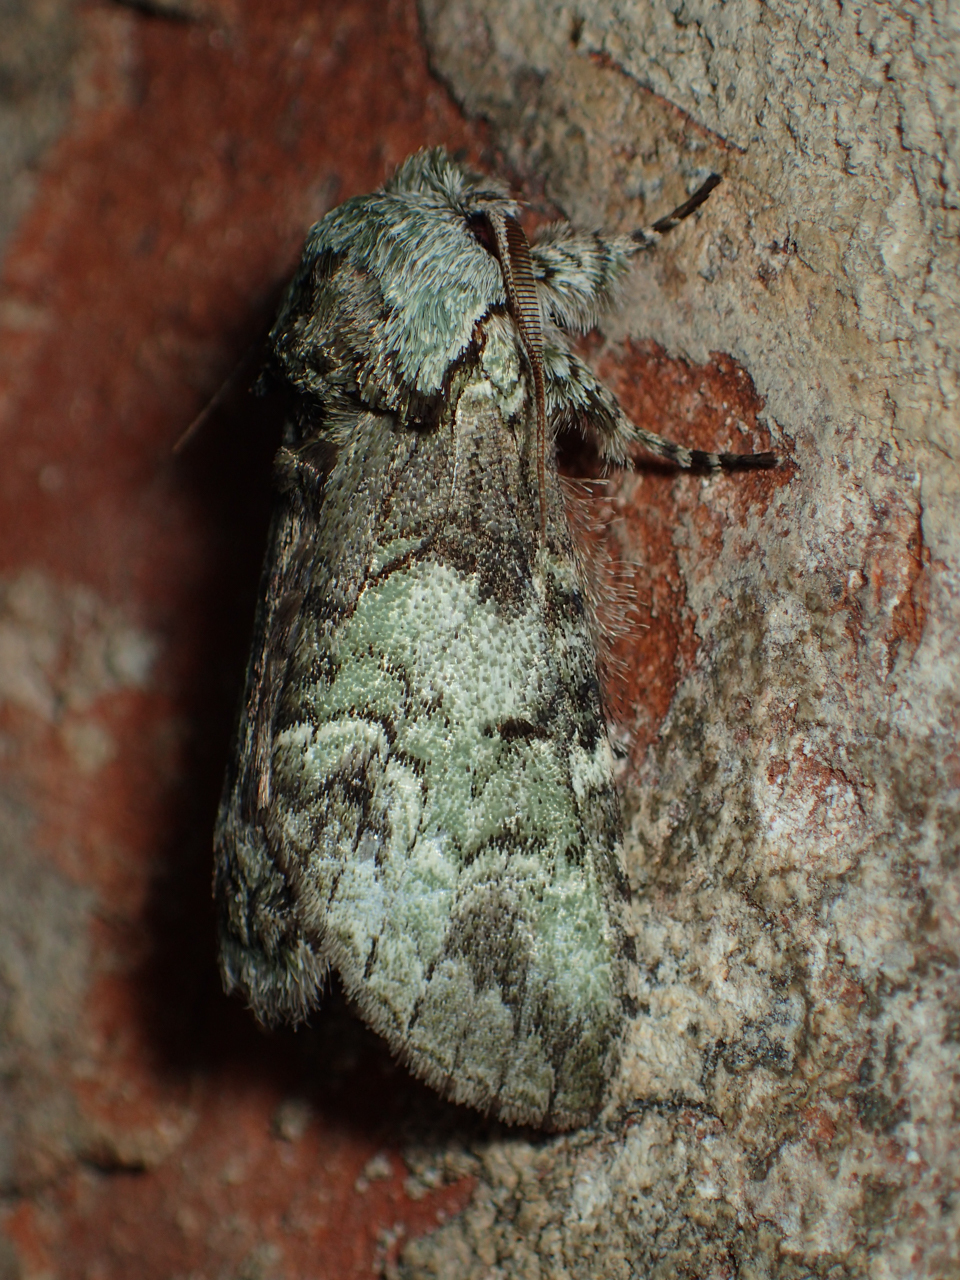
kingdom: Animalia
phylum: Arthropoda
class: Insecta
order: Lepidoptera
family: Notodontidae
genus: Macrurocampa
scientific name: Macrurocampa marthesia
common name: Mottled prominent
